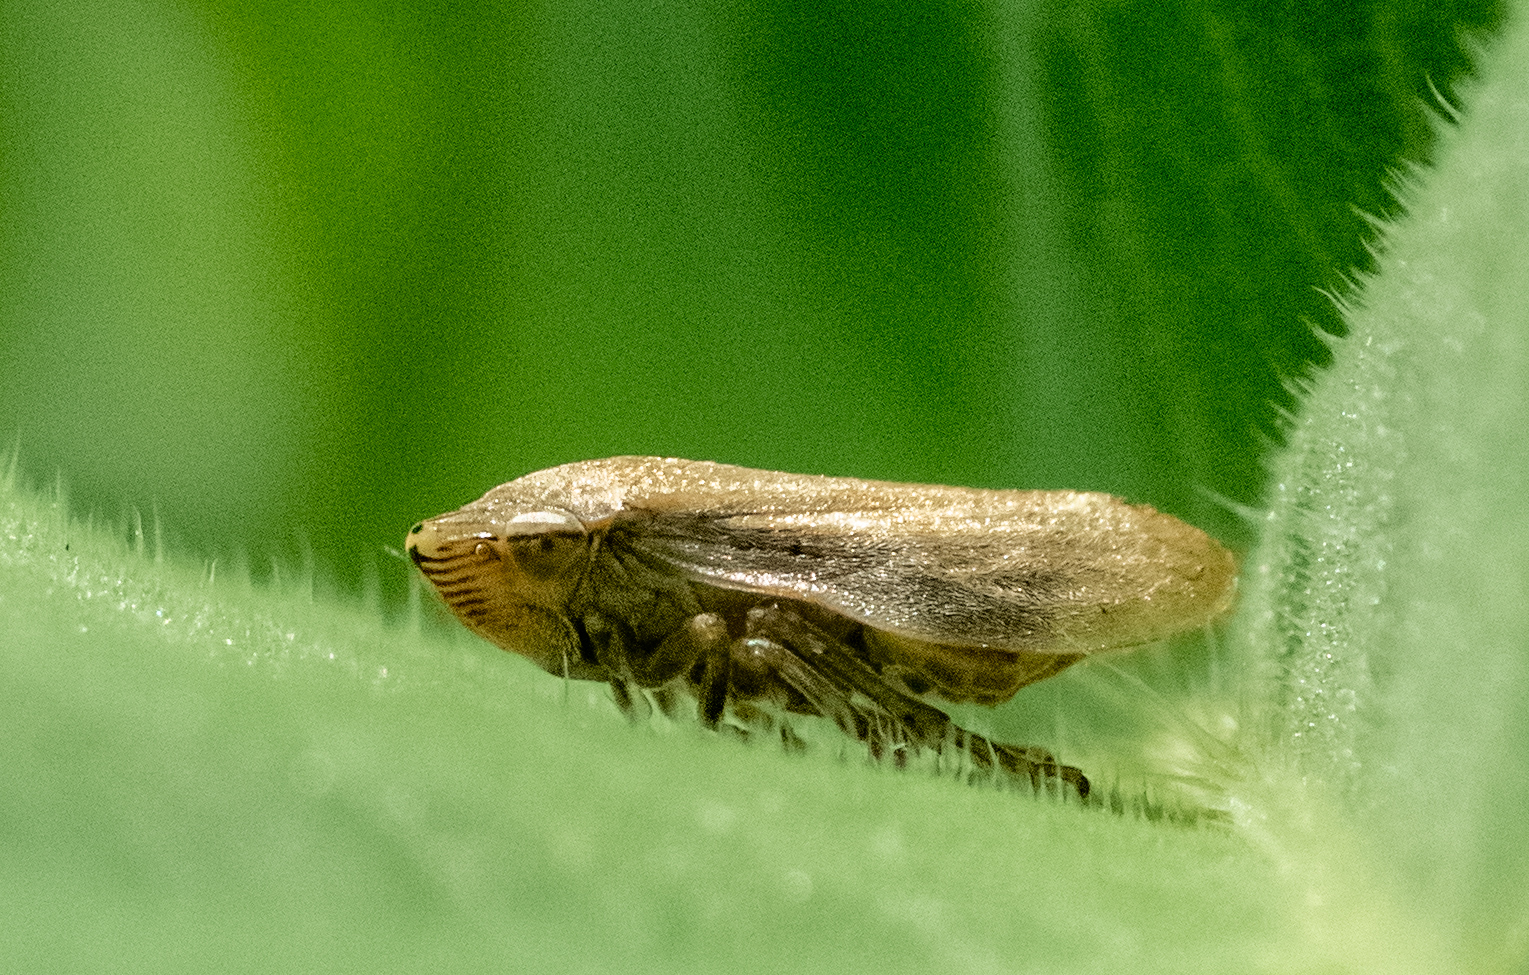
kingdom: Animalia
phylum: Arthropoda
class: Insecta
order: Hemiptera
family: Aphrophoridae
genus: Philaenus
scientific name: Philaenus spumarius
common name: Meadow spittlebug
